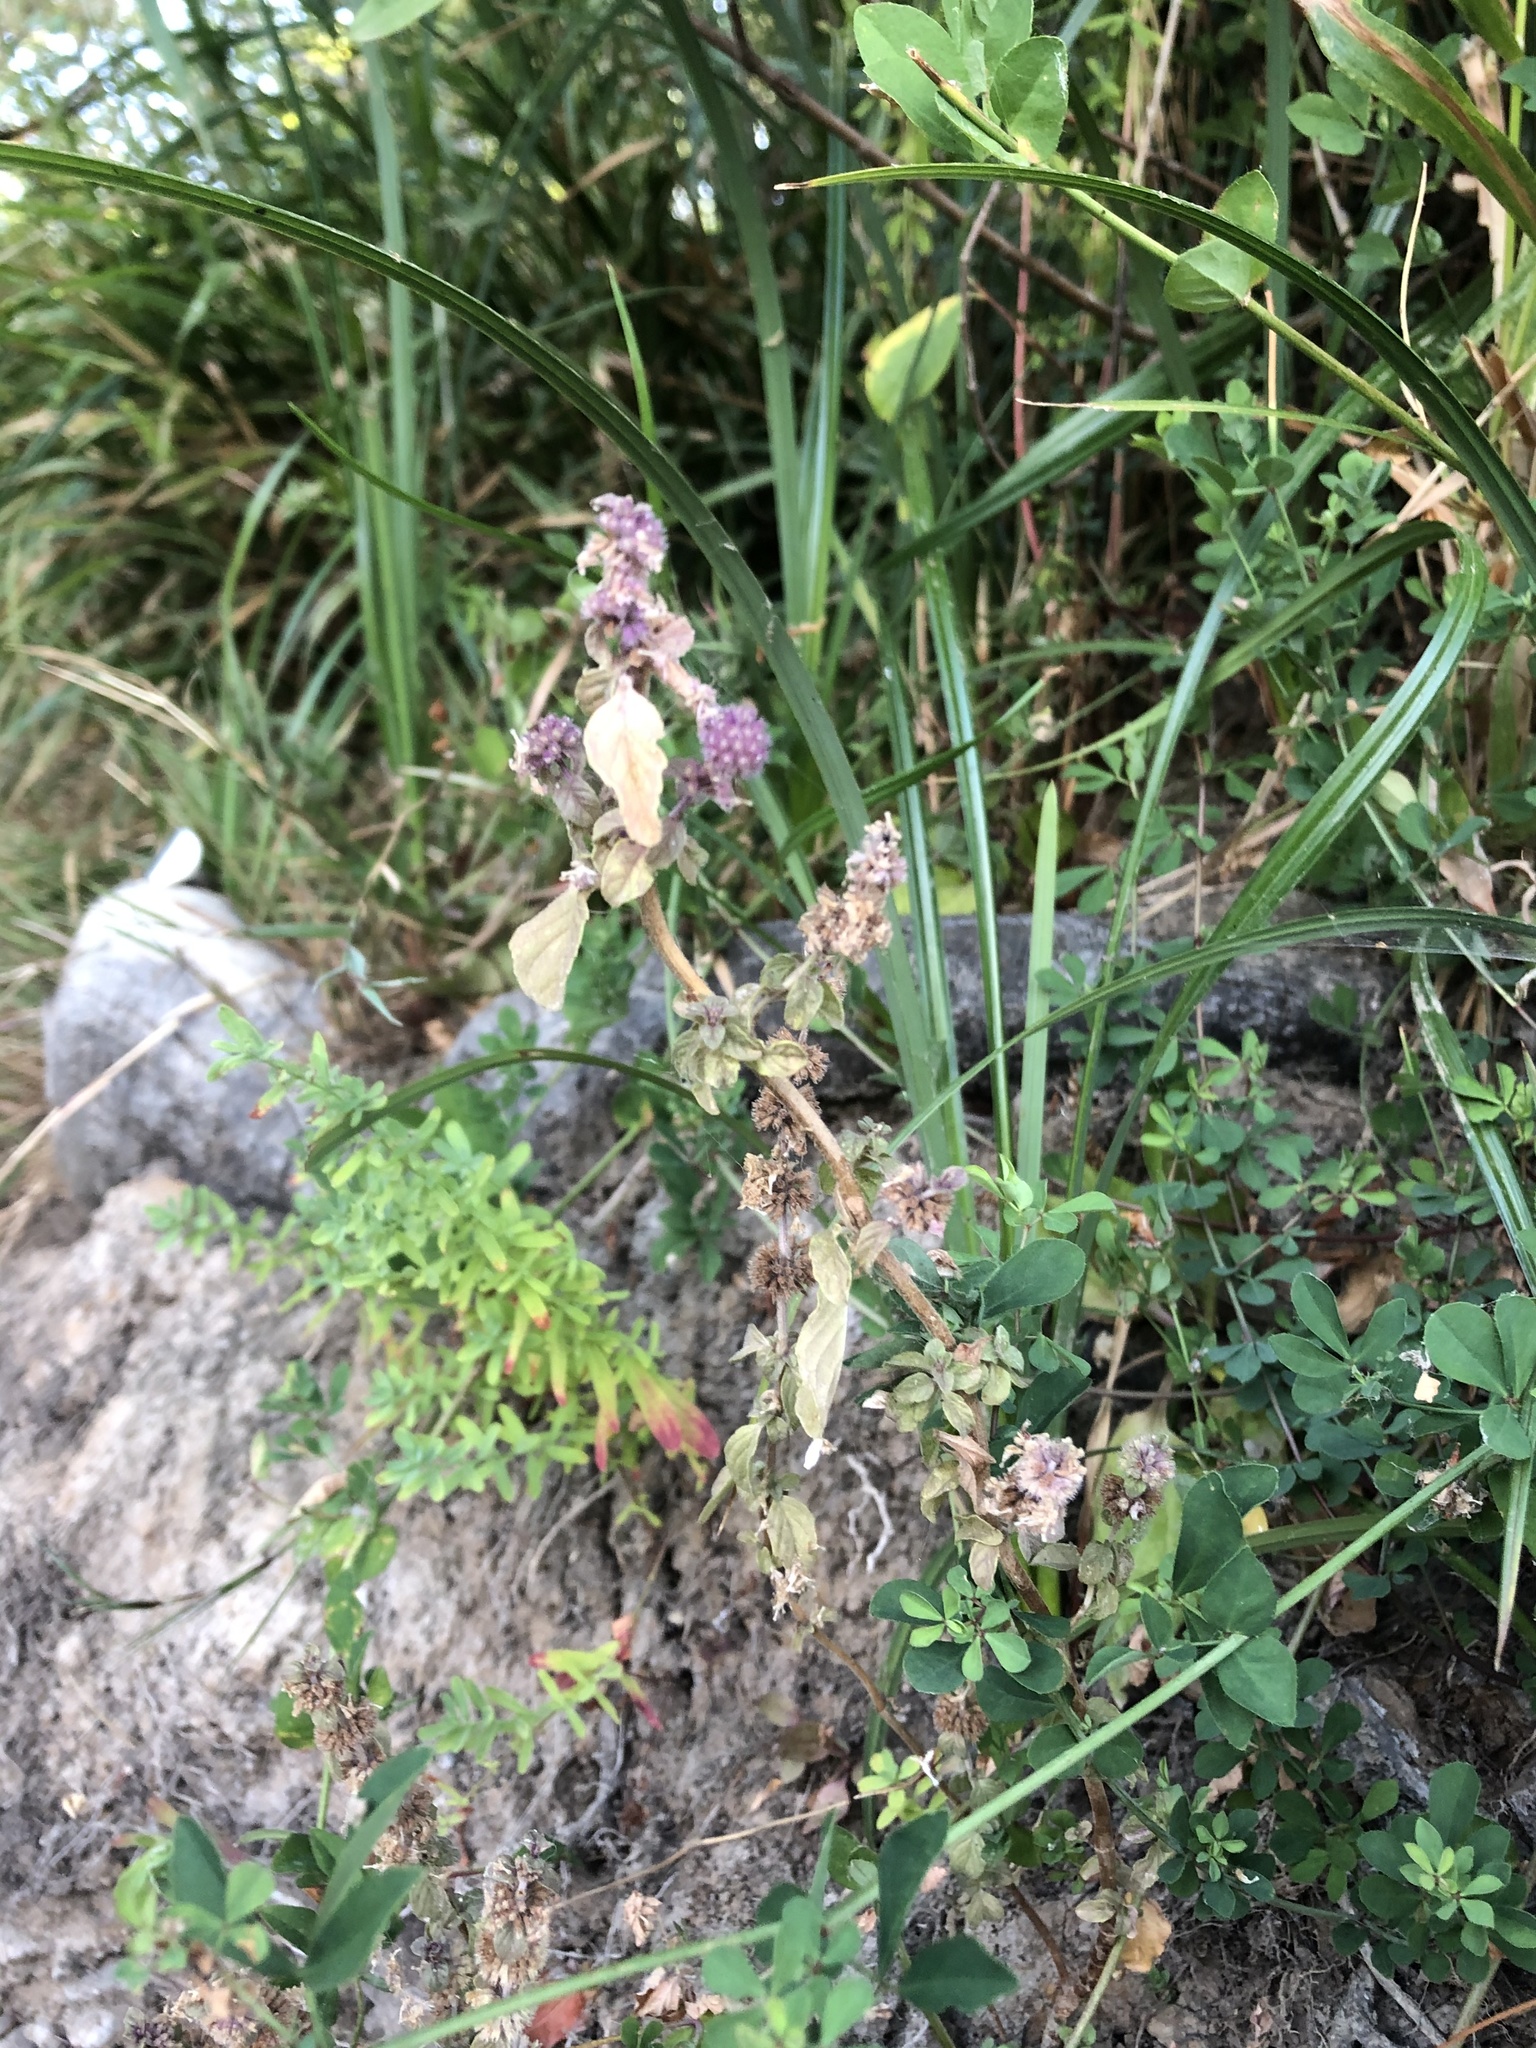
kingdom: Plantae
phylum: Tracheophyta
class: Magnoliopsida
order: Lamiales
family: Lamiaceae
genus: Mentha
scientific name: Mentha canadensis
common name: American corn mint
